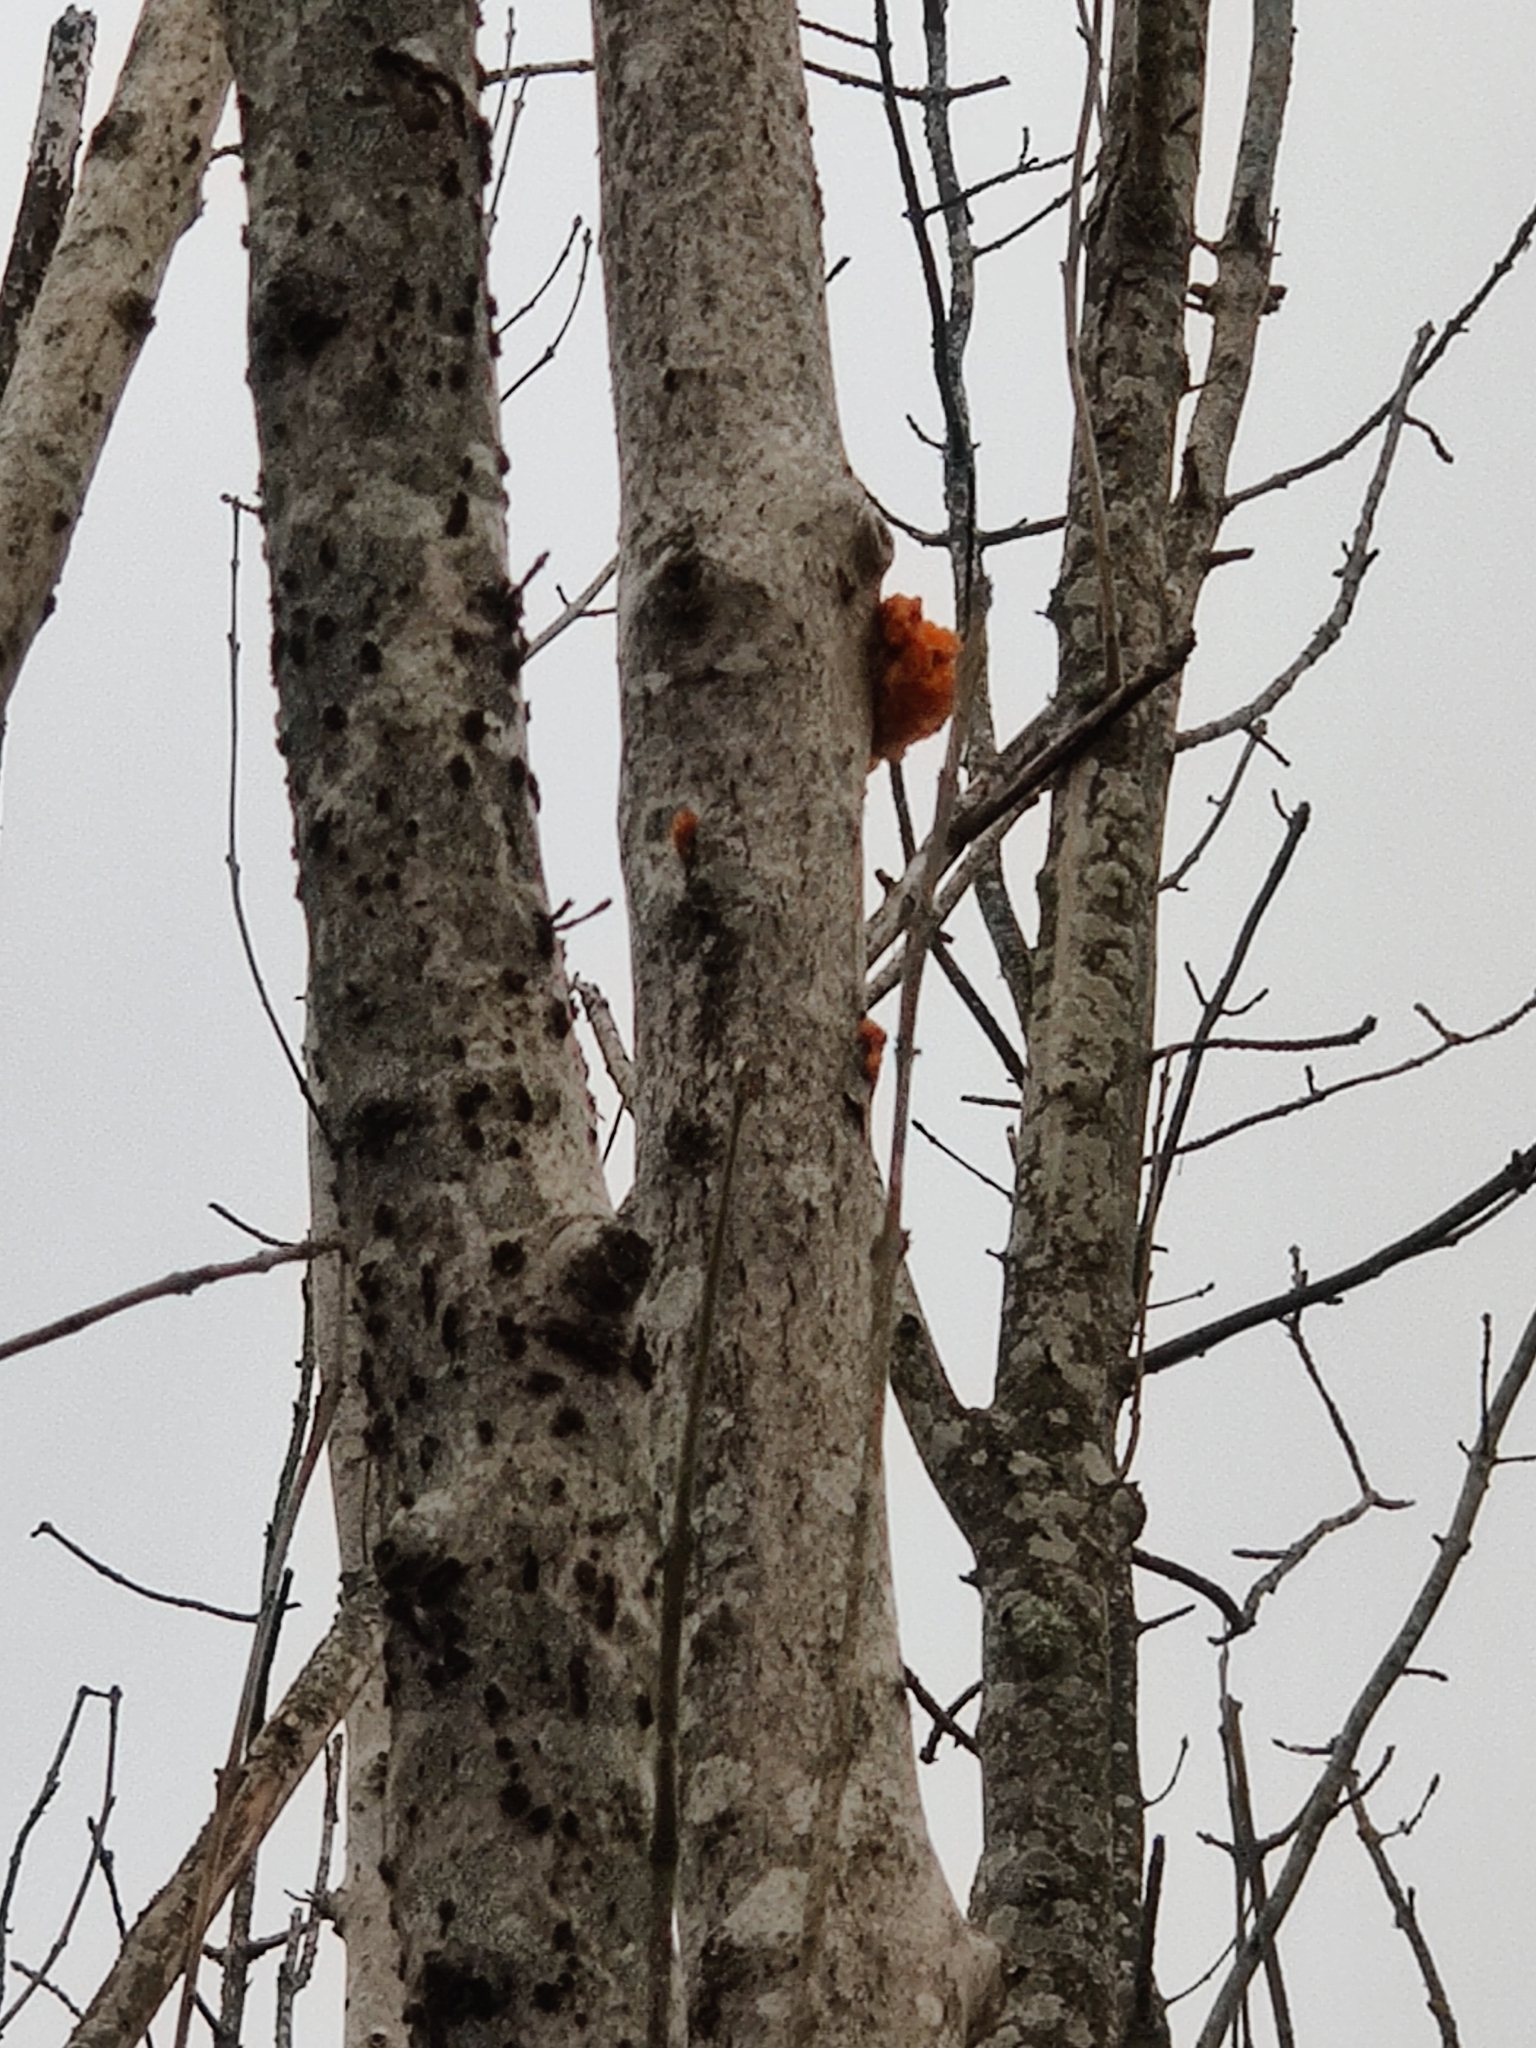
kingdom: Fungi
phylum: Basidiomycota
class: Tremellomycetes
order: Tremellales
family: Tremellaceae
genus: Tremella
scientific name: Tremella mesenterica
